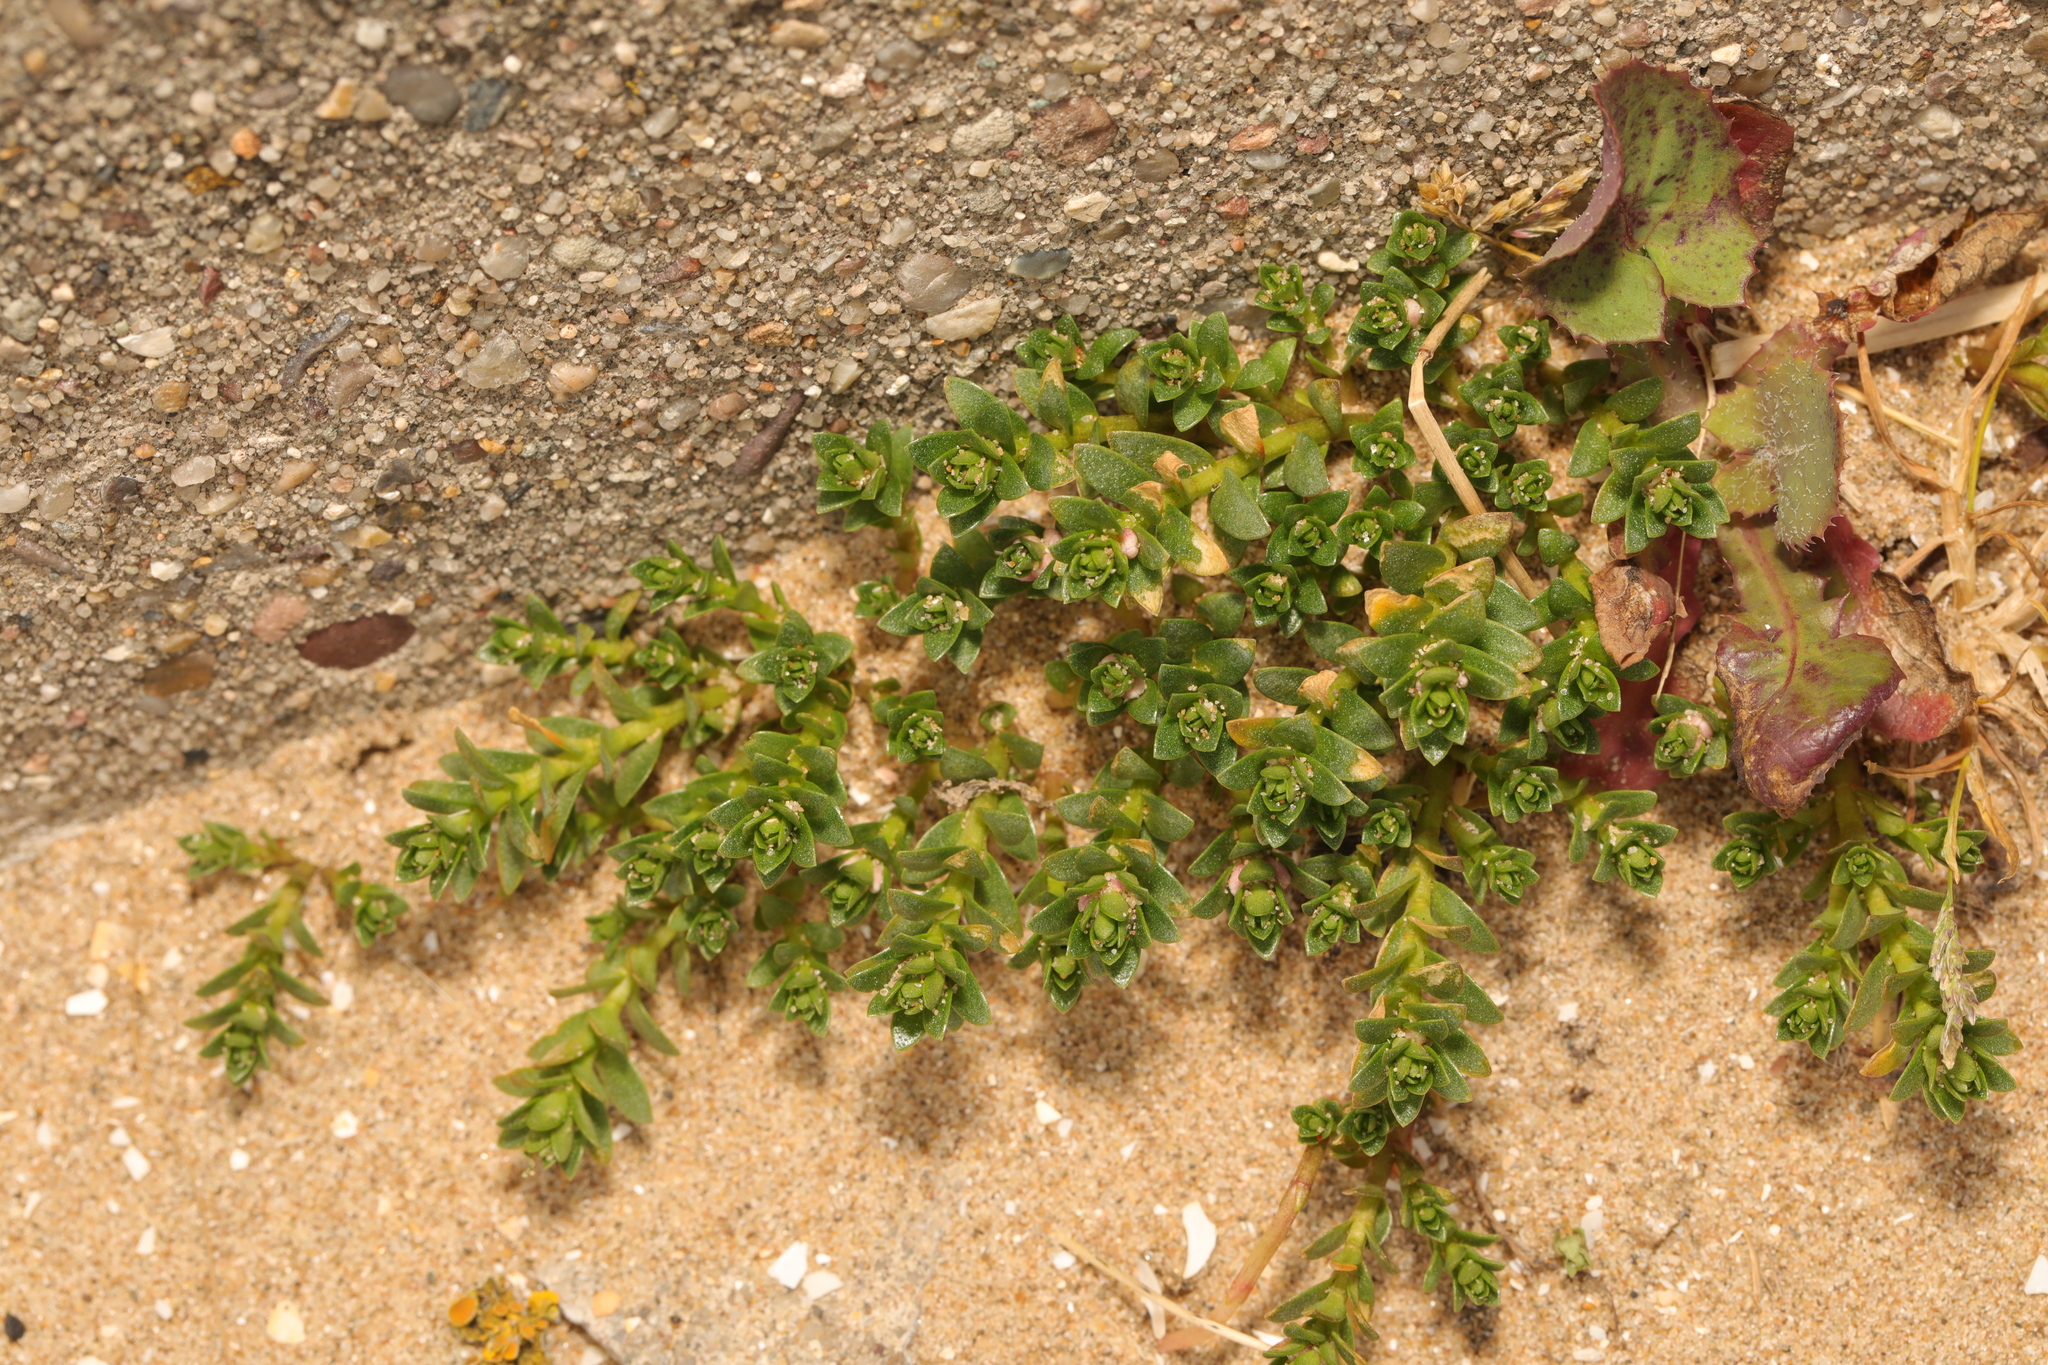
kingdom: Plantae
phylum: Tracheophyta
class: Magnoliopsida
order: Ericales
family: Primulaceae
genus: Lysimachia
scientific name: Lysimachia maritima
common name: Sea milkwort
